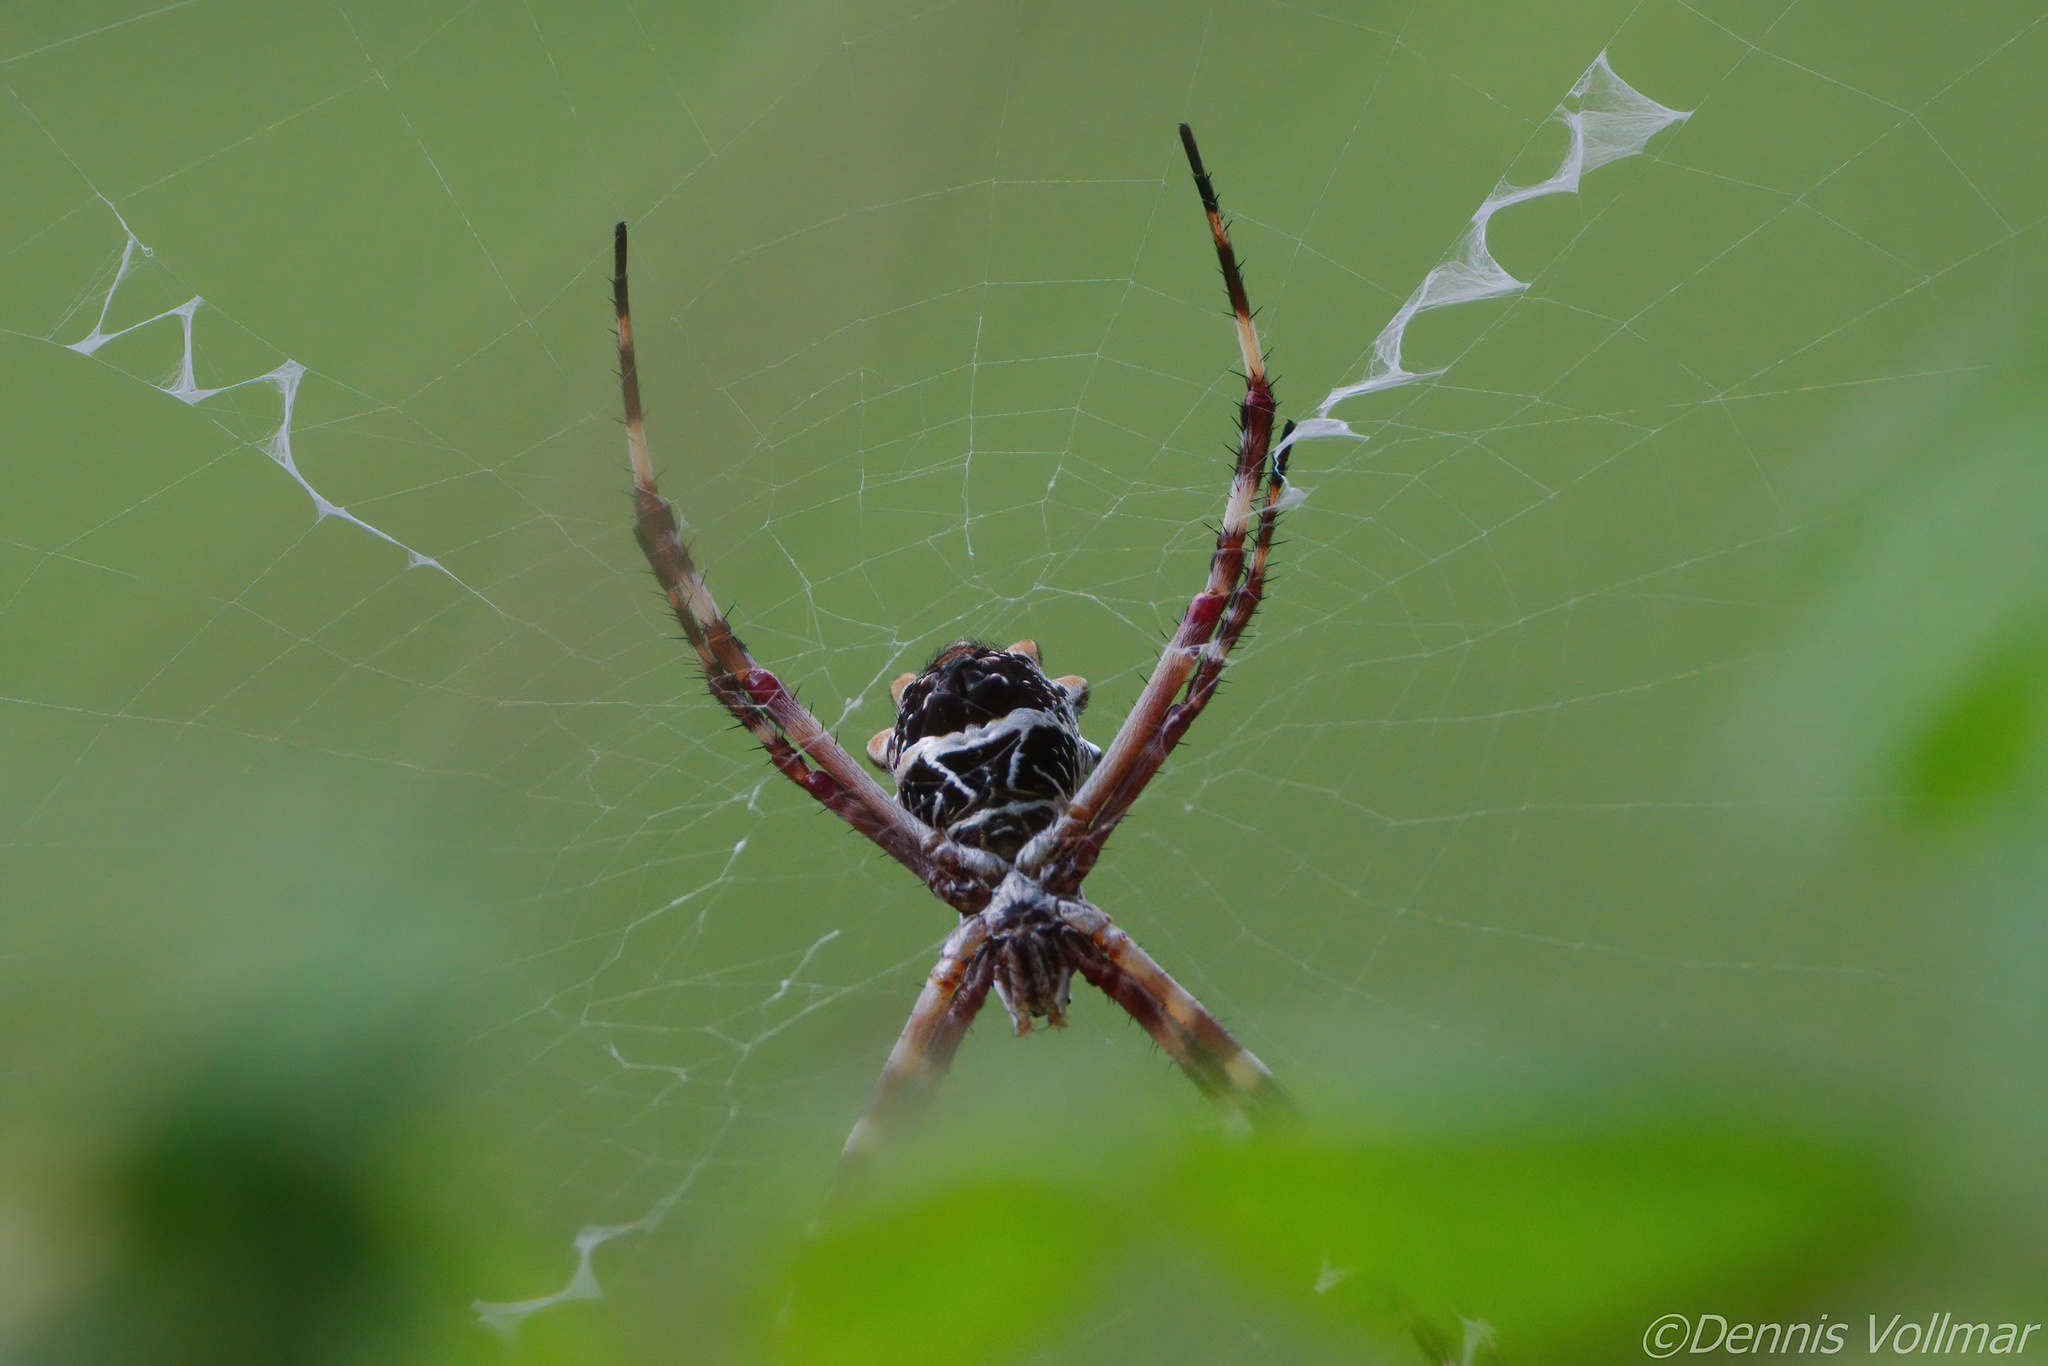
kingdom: Animalia
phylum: Arthropoda
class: Arachnida
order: Araneae
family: Araneidae
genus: Argiope
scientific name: Argiope argentata
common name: Orb weavers
